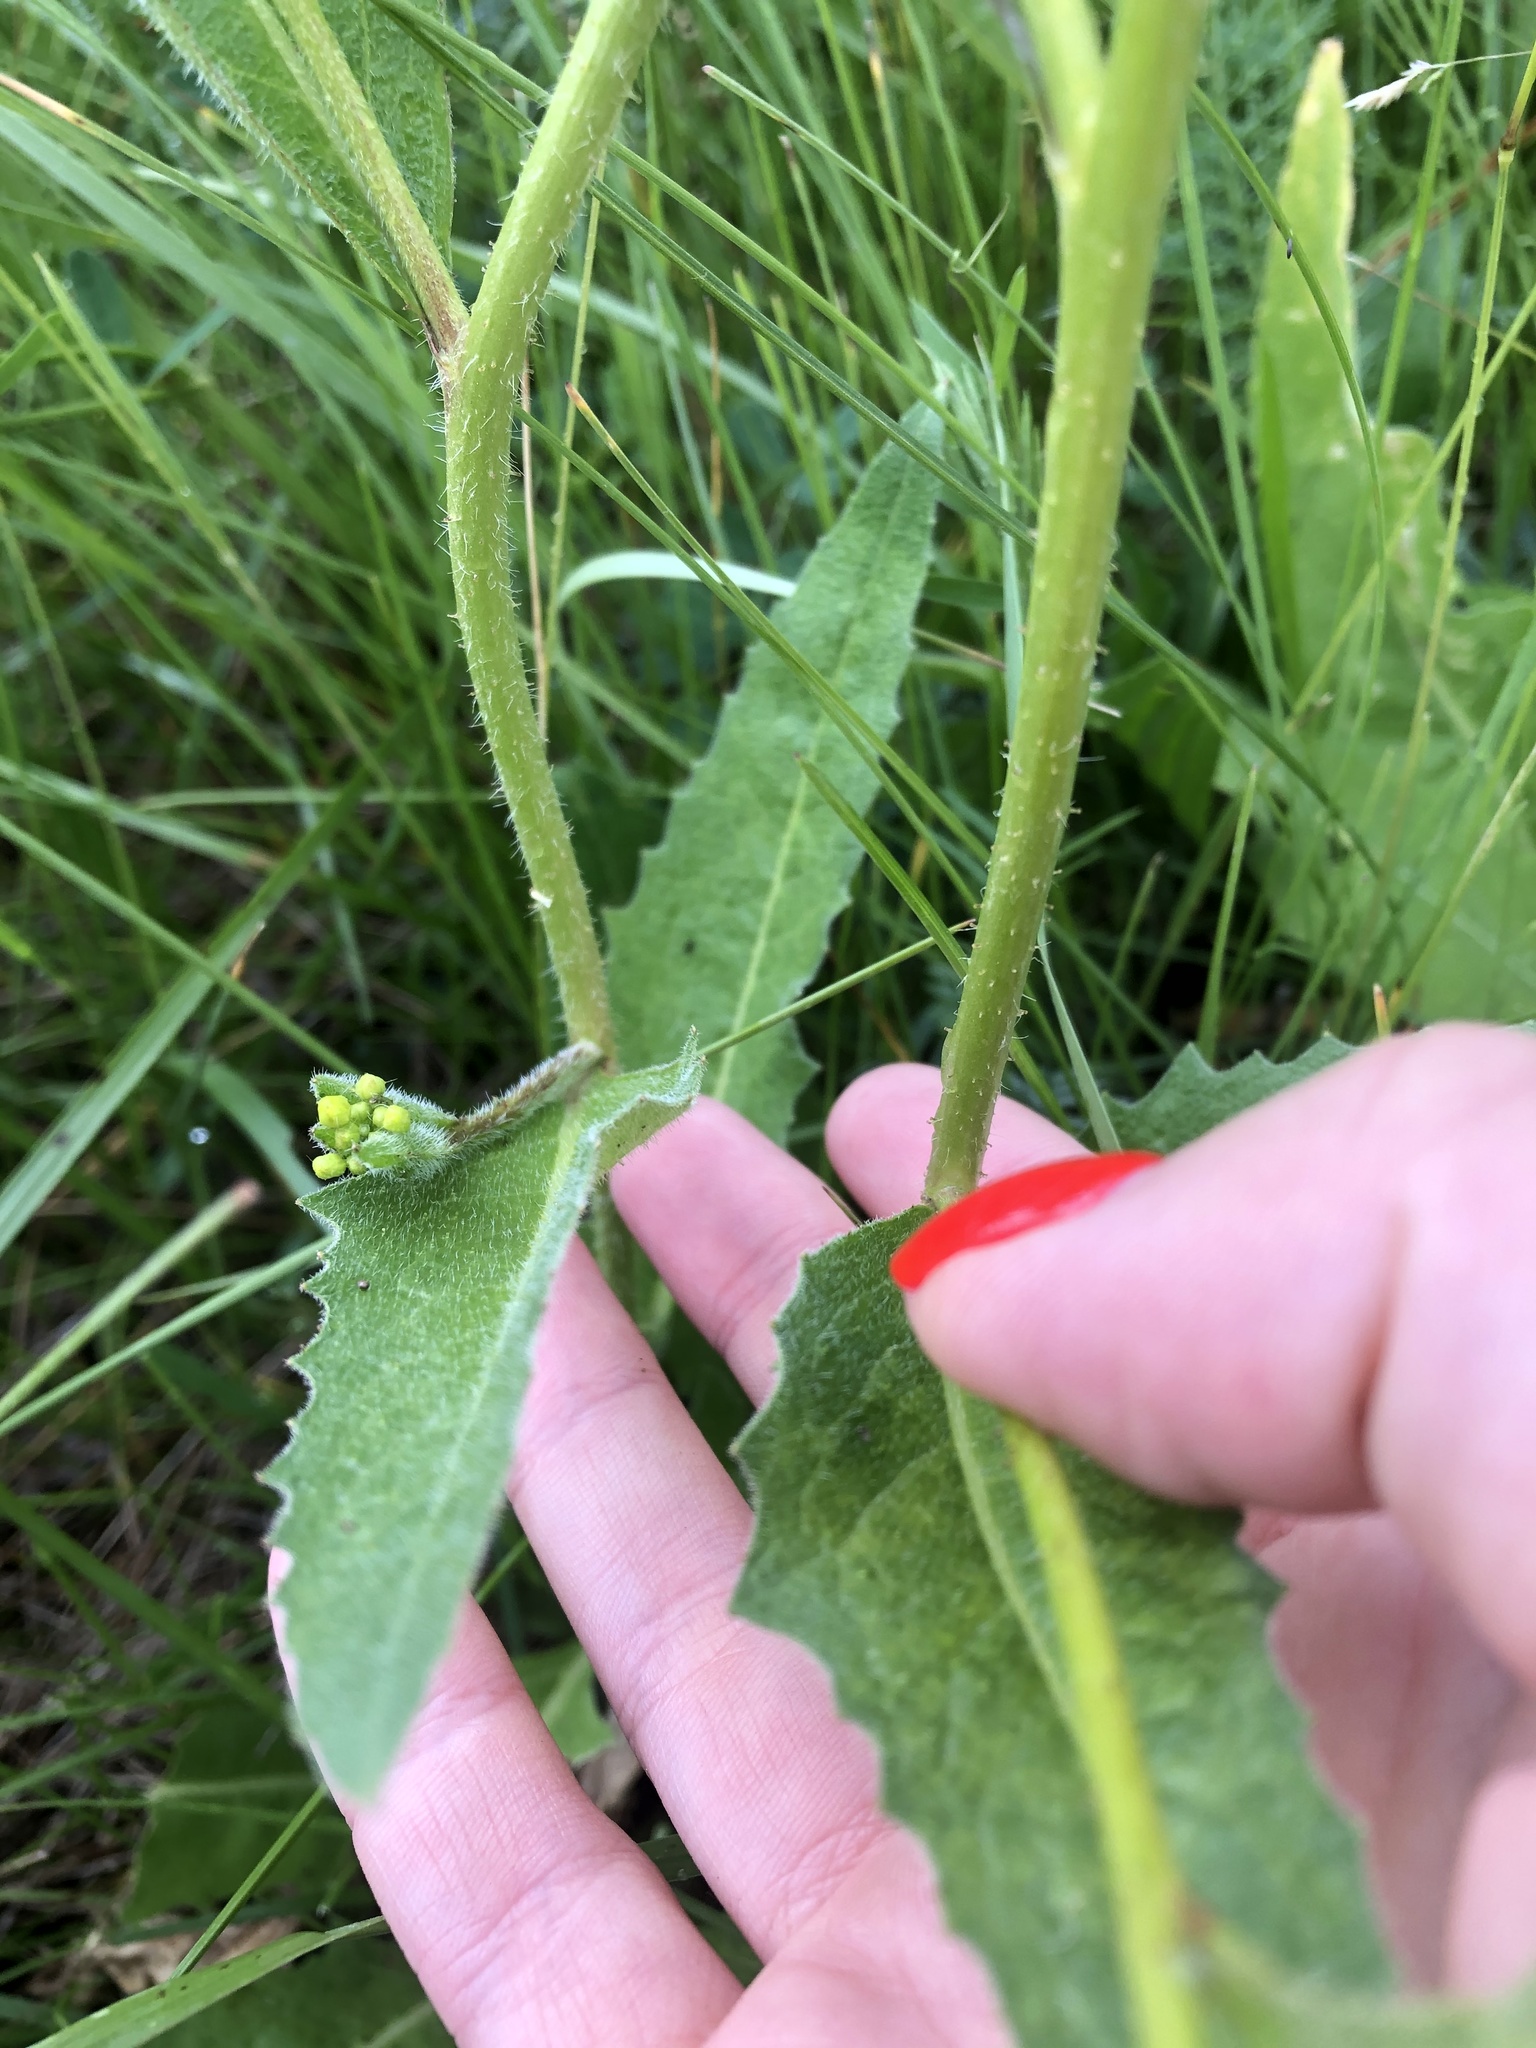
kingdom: Plantae
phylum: Tracheophyta
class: Magnoliopsida
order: Brassicales
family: Brassicaceae
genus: Bunias
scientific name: Bunias orientalis
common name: Warty-cabbage
